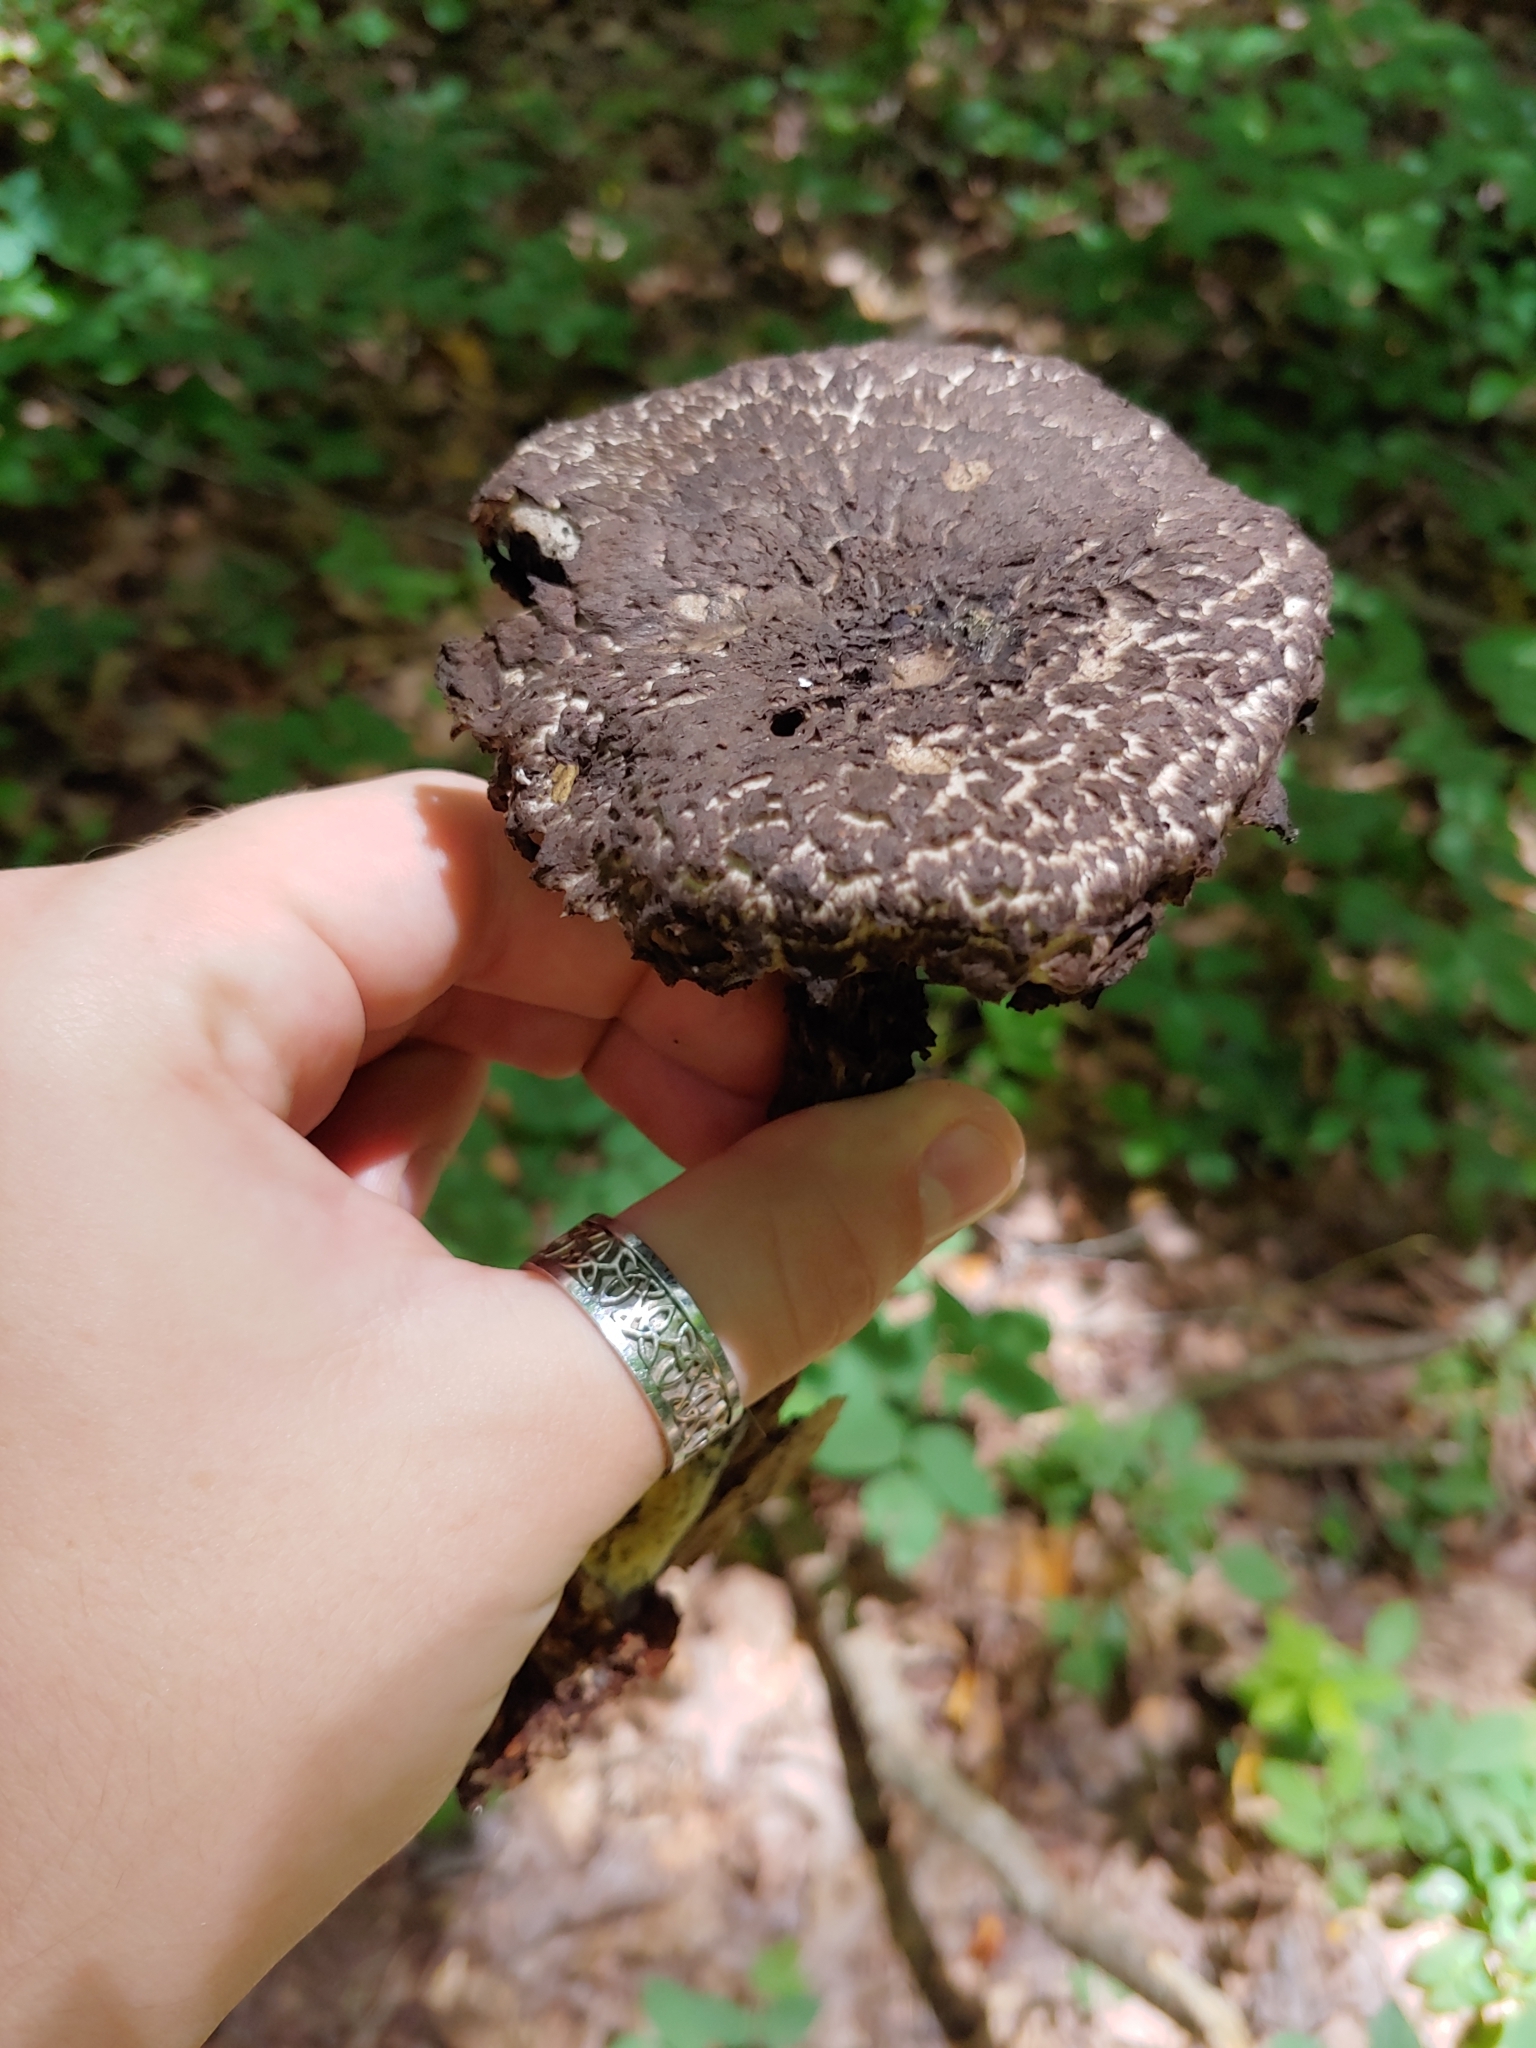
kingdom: Fungi
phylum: Basidiomycota
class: Agaricomycetes
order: Boletales
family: Boletaceae
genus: Strobilomyces
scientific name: Strobilomyces strobilaceus
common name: Old man of the woods
